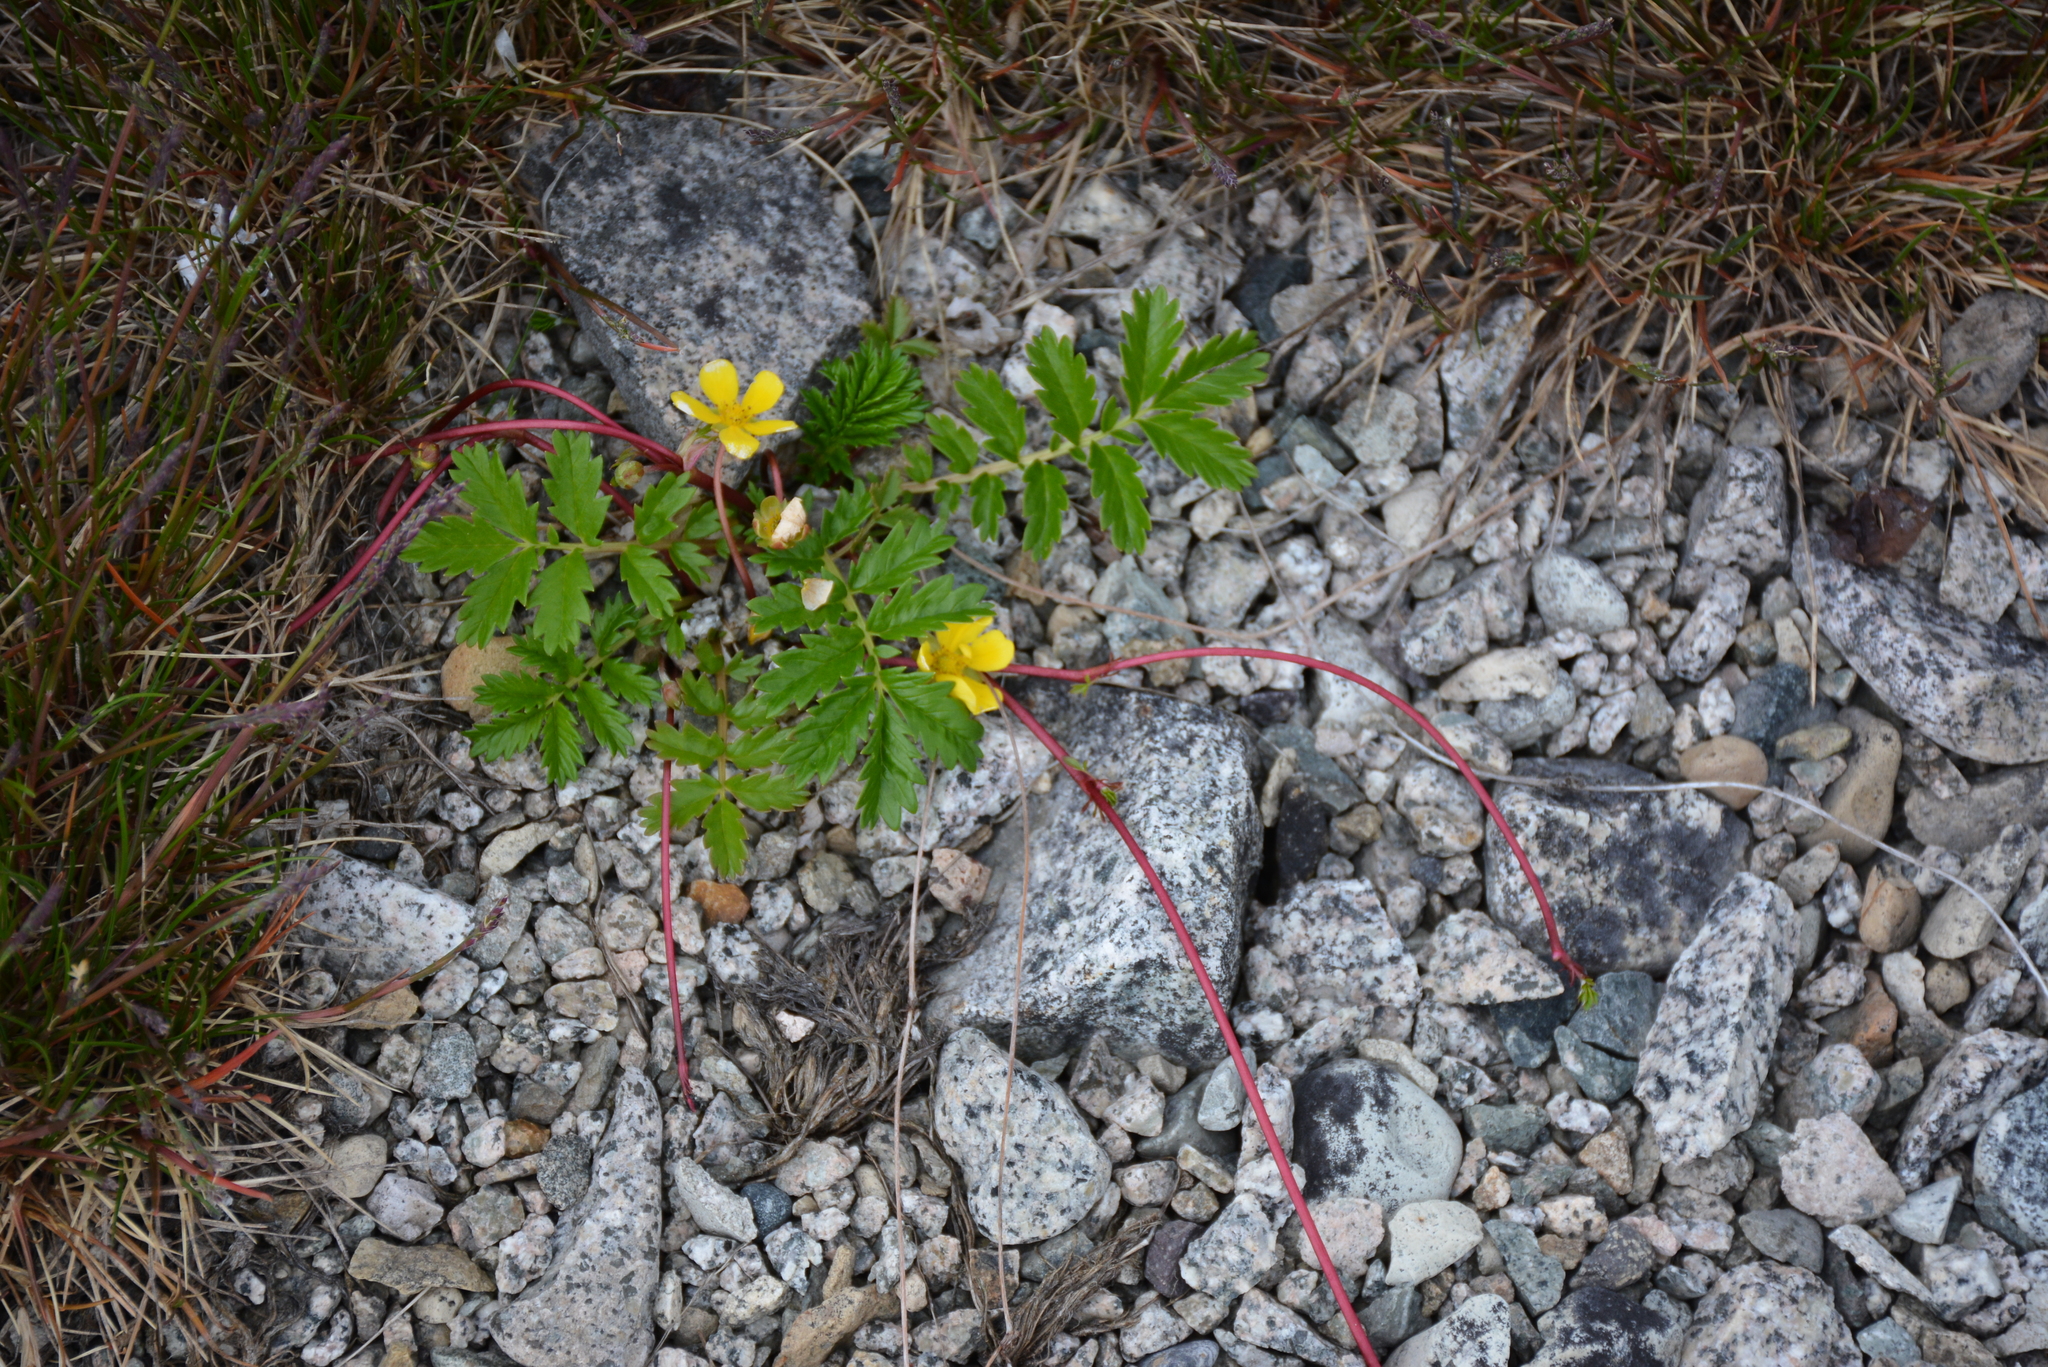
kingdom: Plantae
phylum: Tracheophyta
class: Magnoliopsida
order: Rosales
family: Rosaceae
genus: Argentina
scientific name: Argentina subarctica
